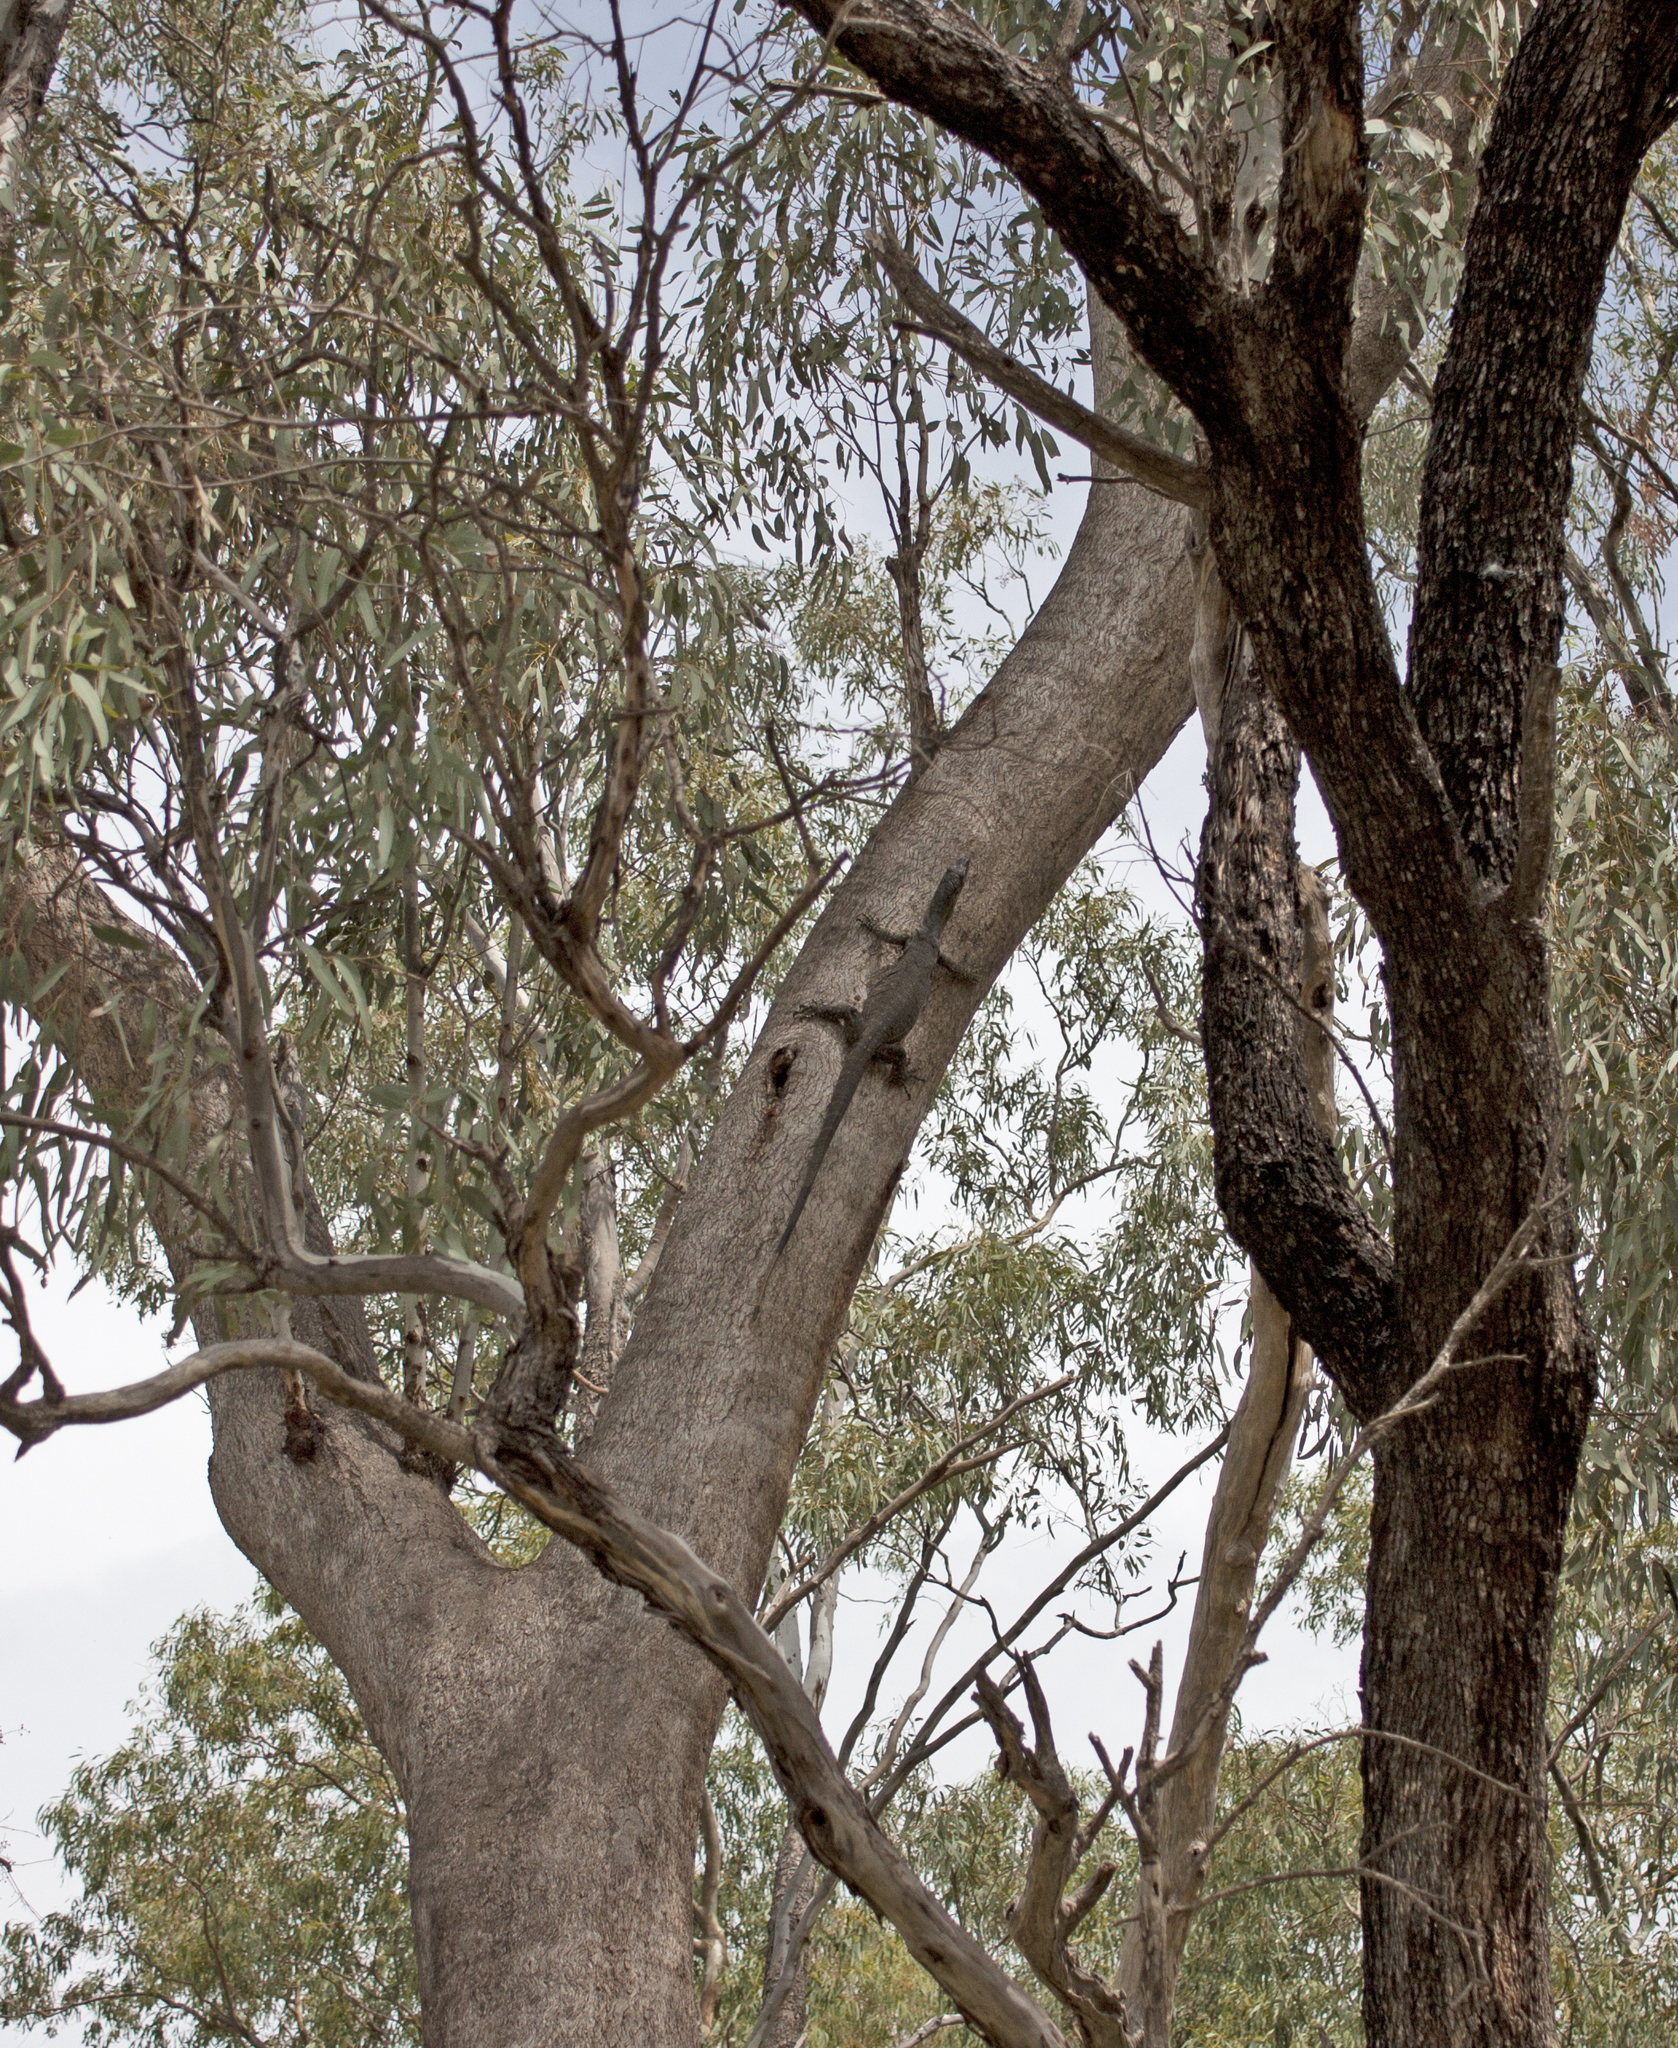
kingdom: Animalia
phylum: Chordata
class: Squamata
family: Varanidae
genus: Varanus
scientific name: Varanus varius
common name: Lace monitor
